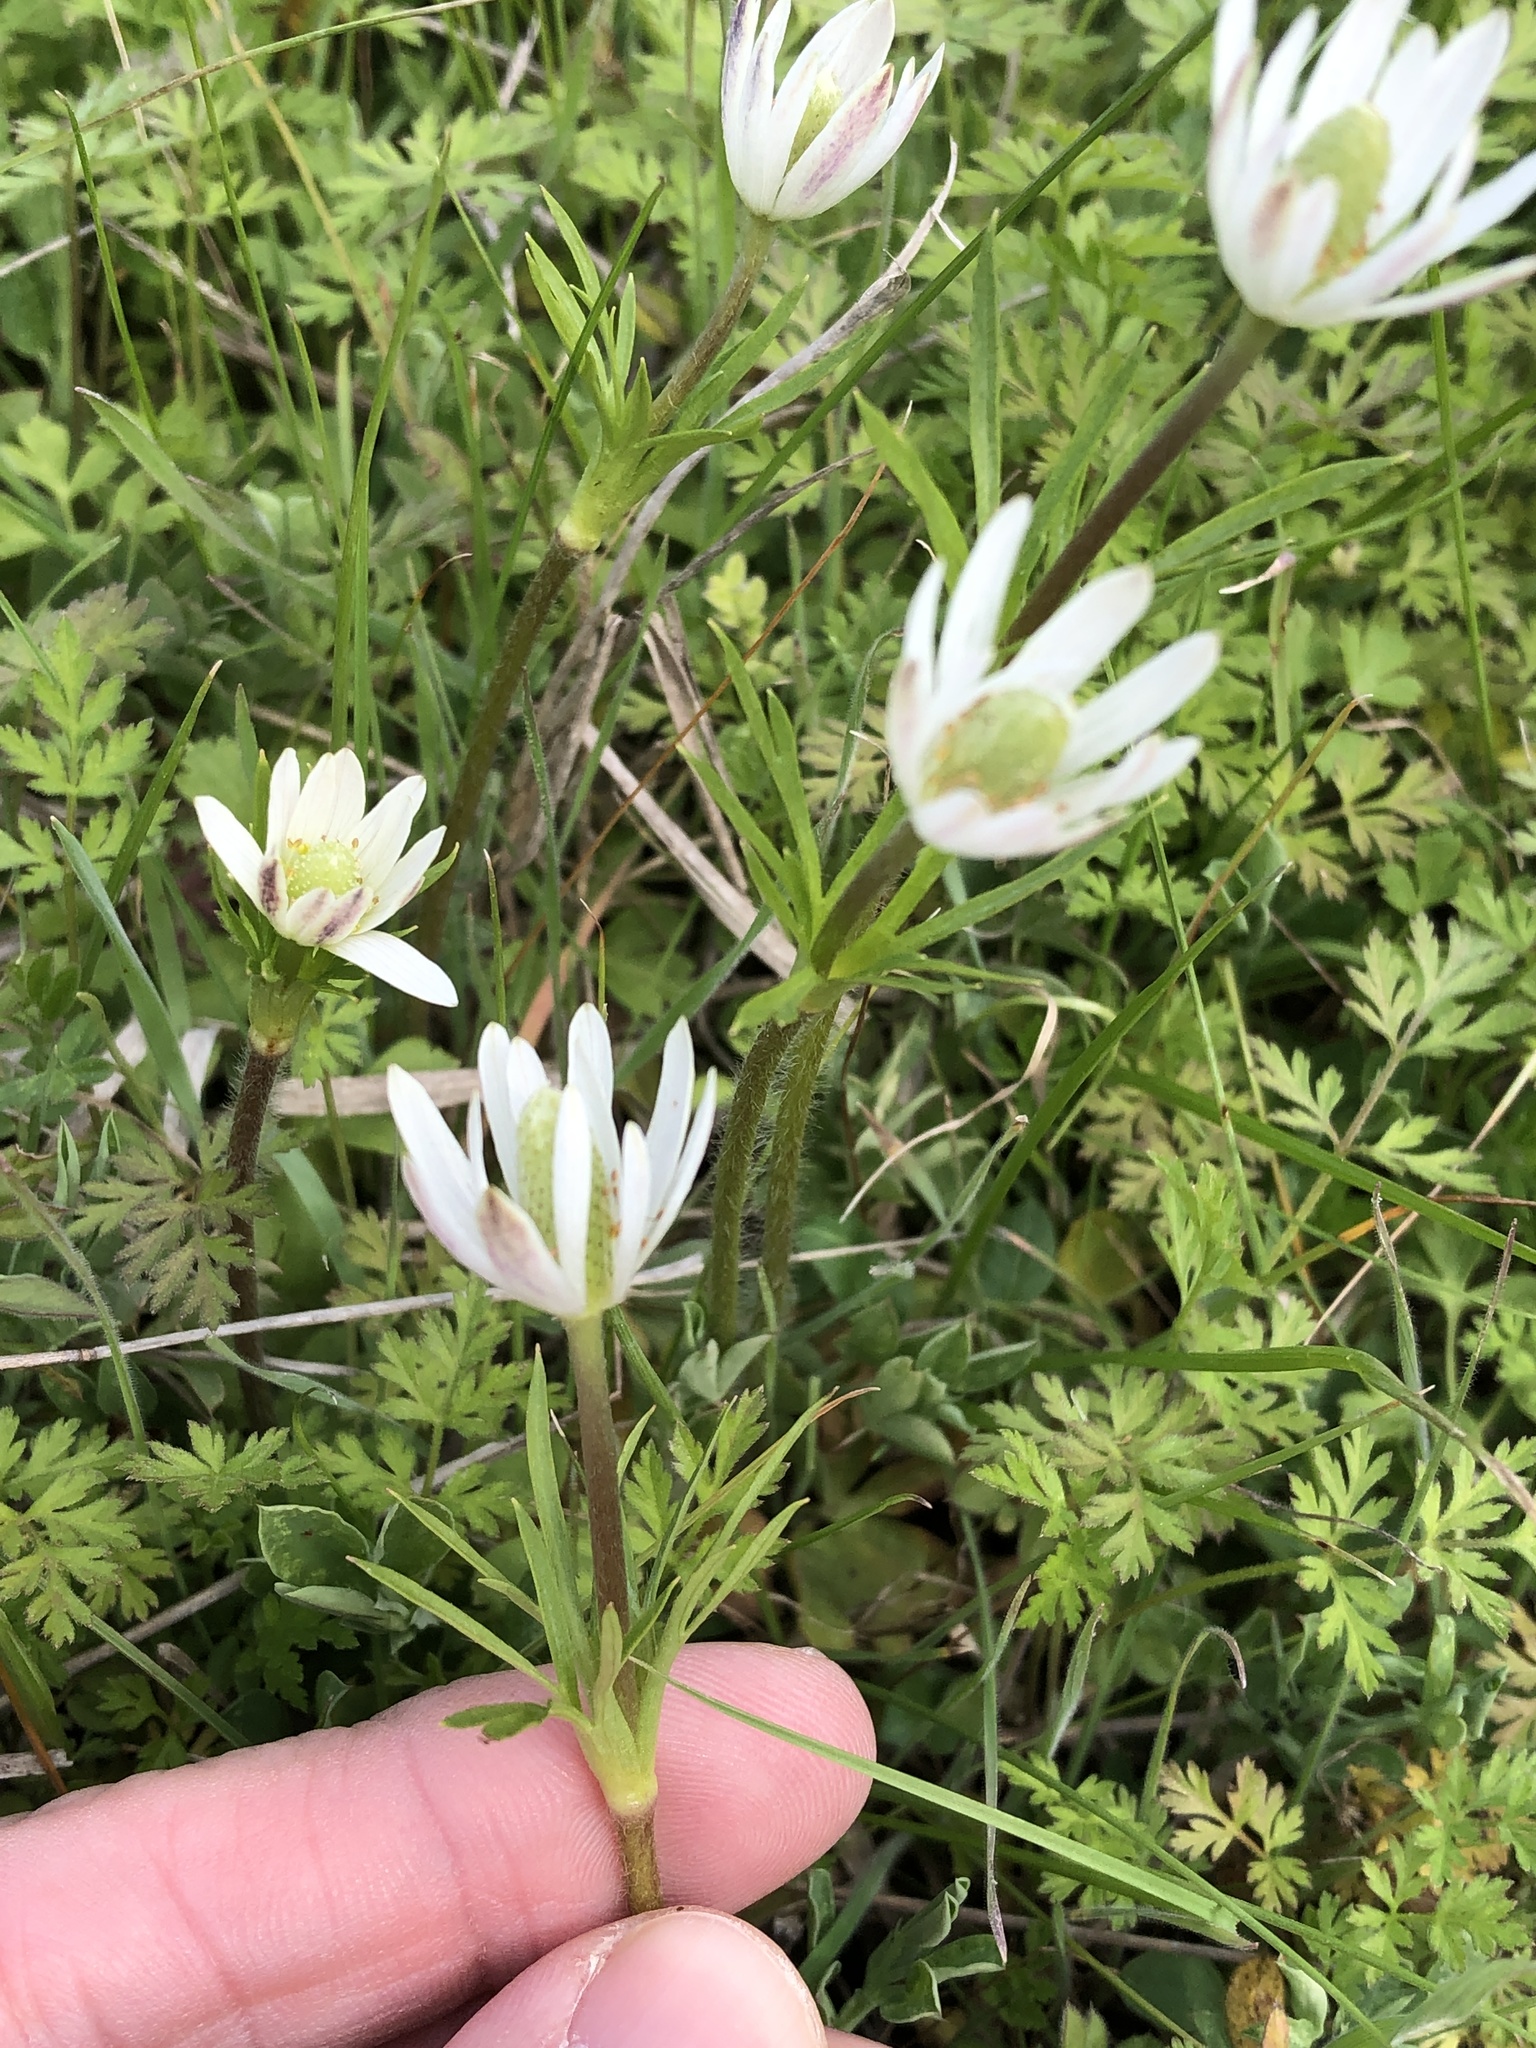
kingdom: Plantae
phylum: Tracheophyta
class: Magnoliopsida
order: Ranunculales
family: Ranunculaceae
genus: Anemone
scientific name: Anemone berlandieri
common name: Ten-petal anemone
